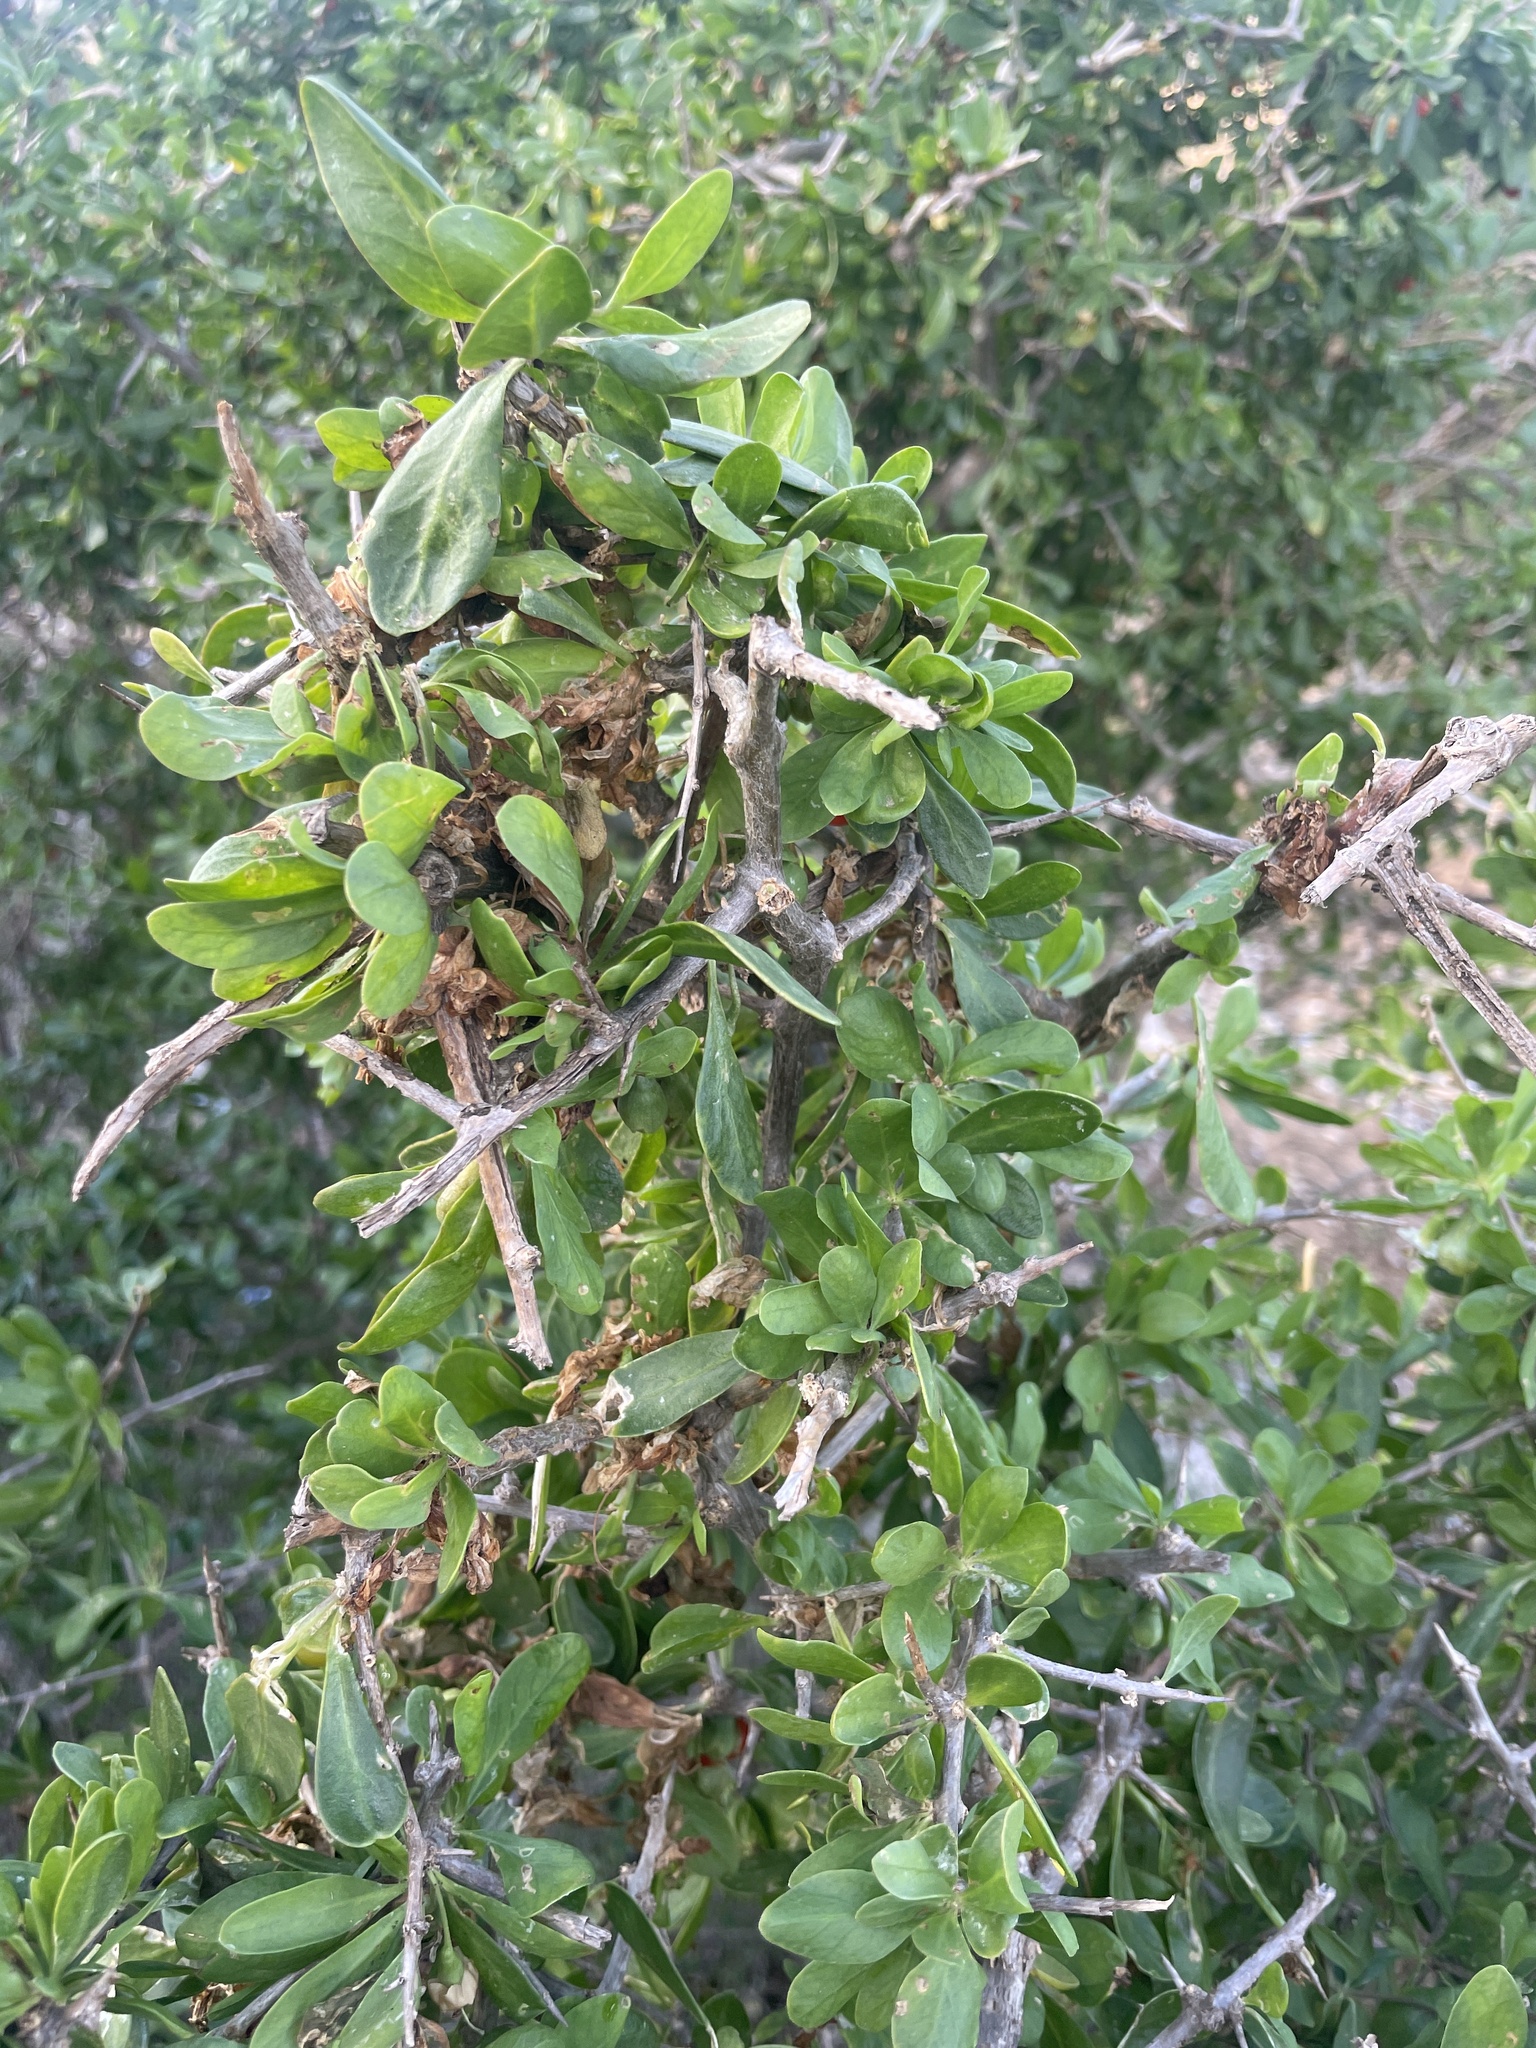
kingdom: Plantae
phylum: Tracheophyta
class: Magnoliopsida
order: Solanales
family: Solanaceae
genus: Lycium
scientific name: Lycium ferocissimum
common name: African boxthorn
